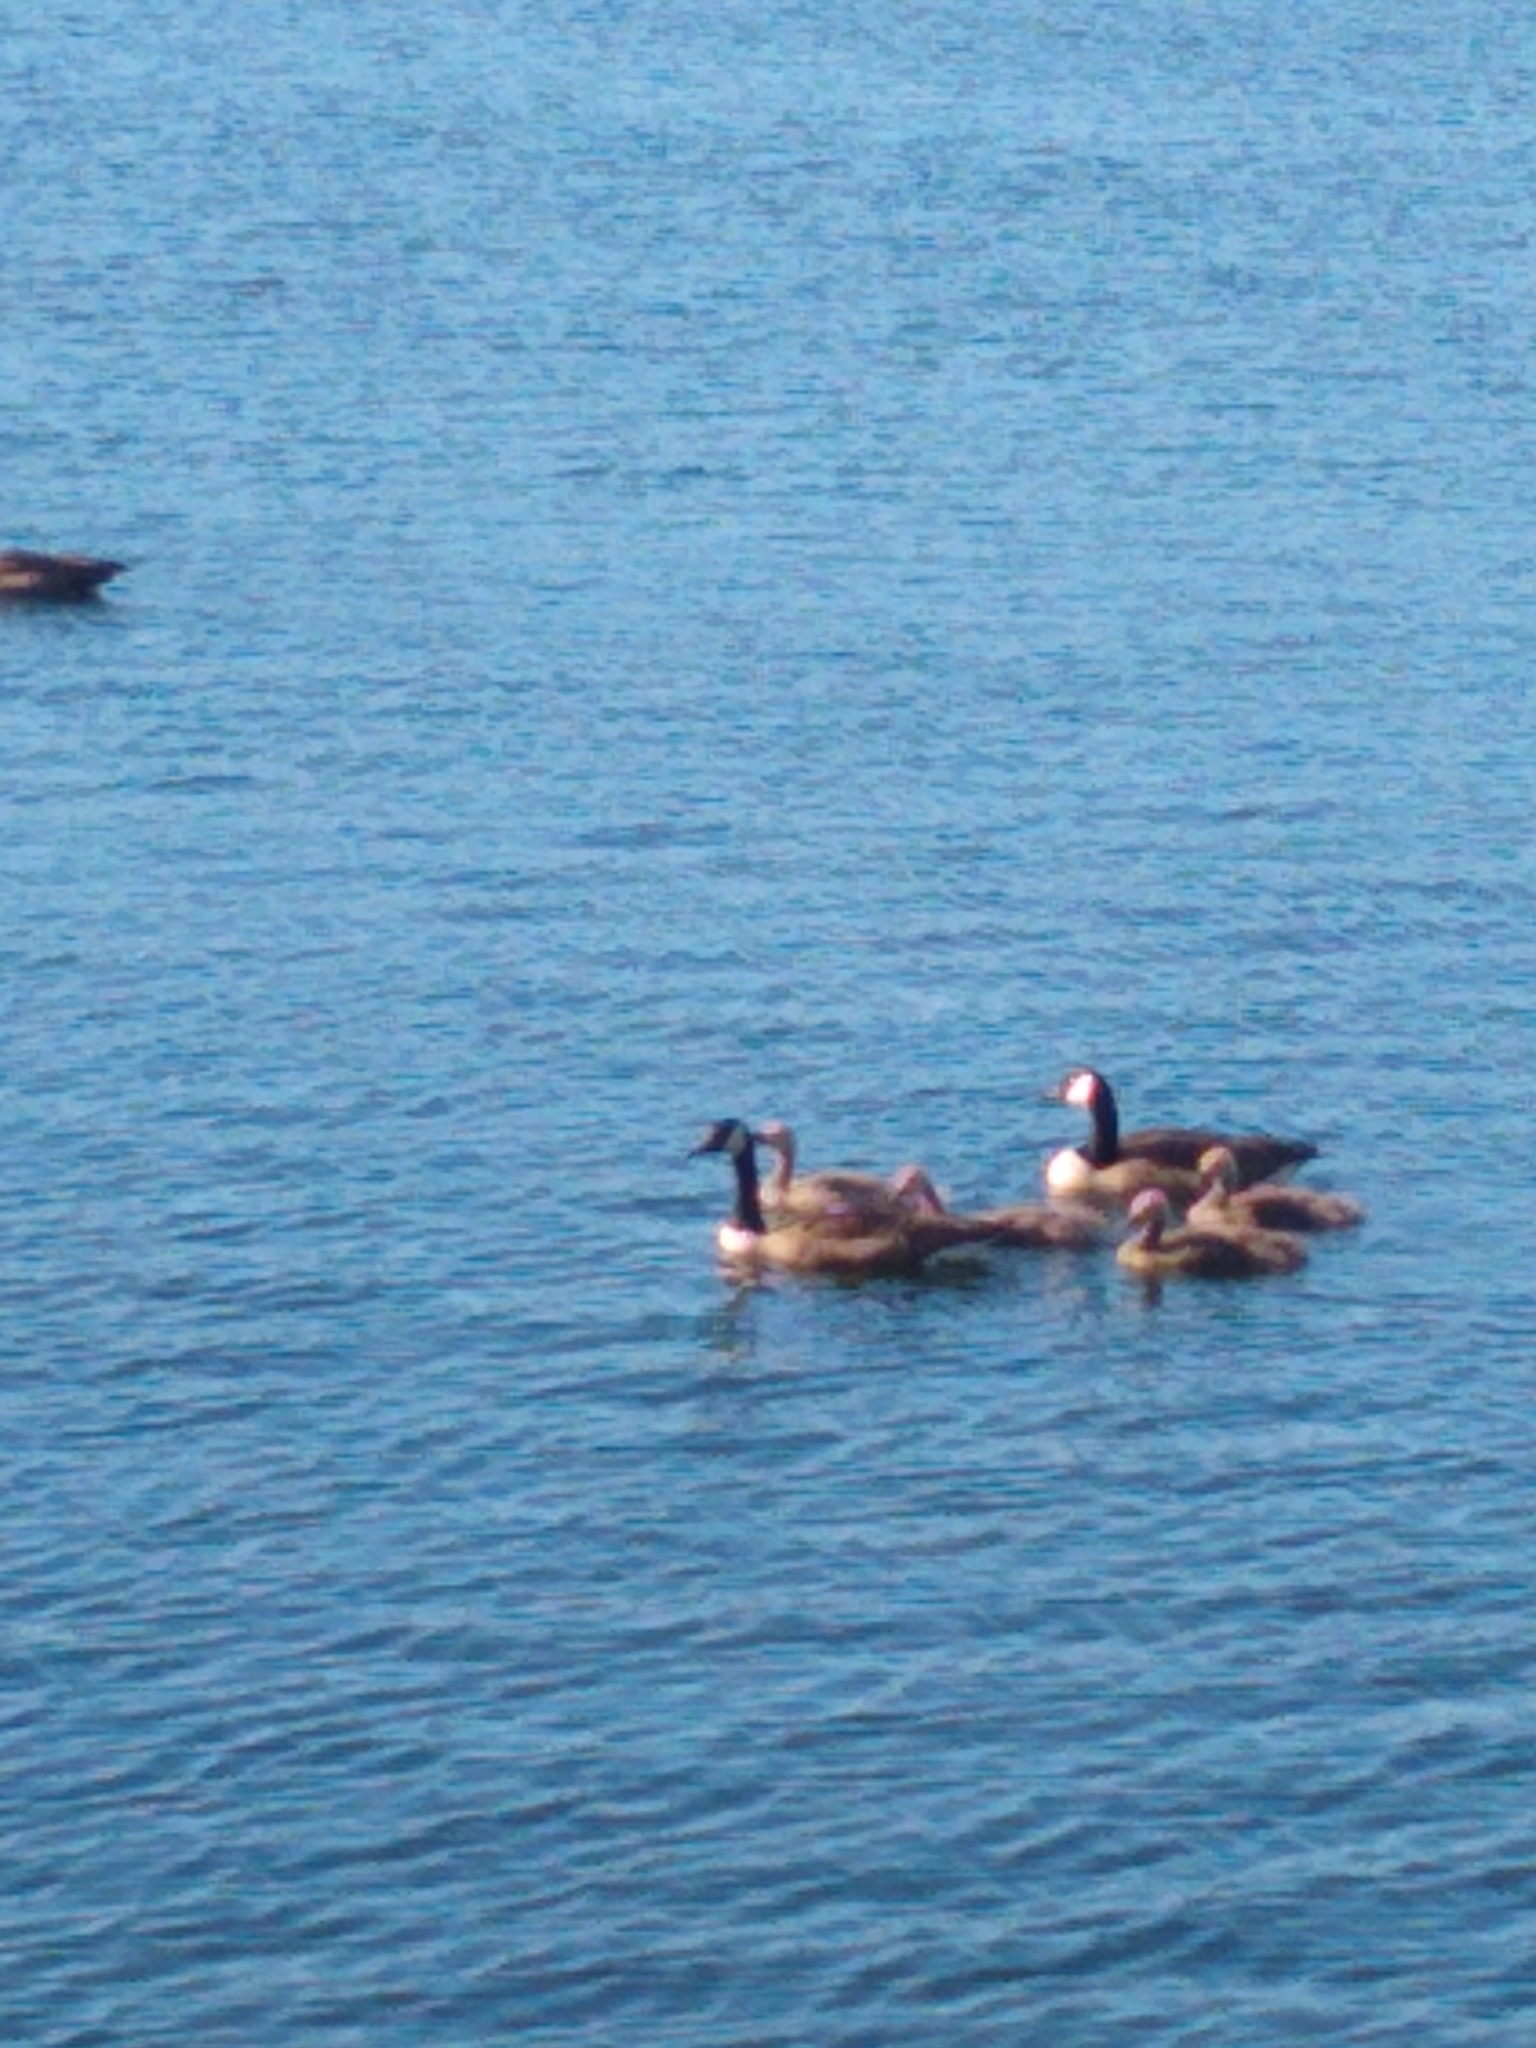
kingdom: Animalia
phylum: Chordata
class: Aves
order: Anseriformes
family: Anatidae
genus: Branta
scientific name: Branta canadensis
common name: Canada goose
